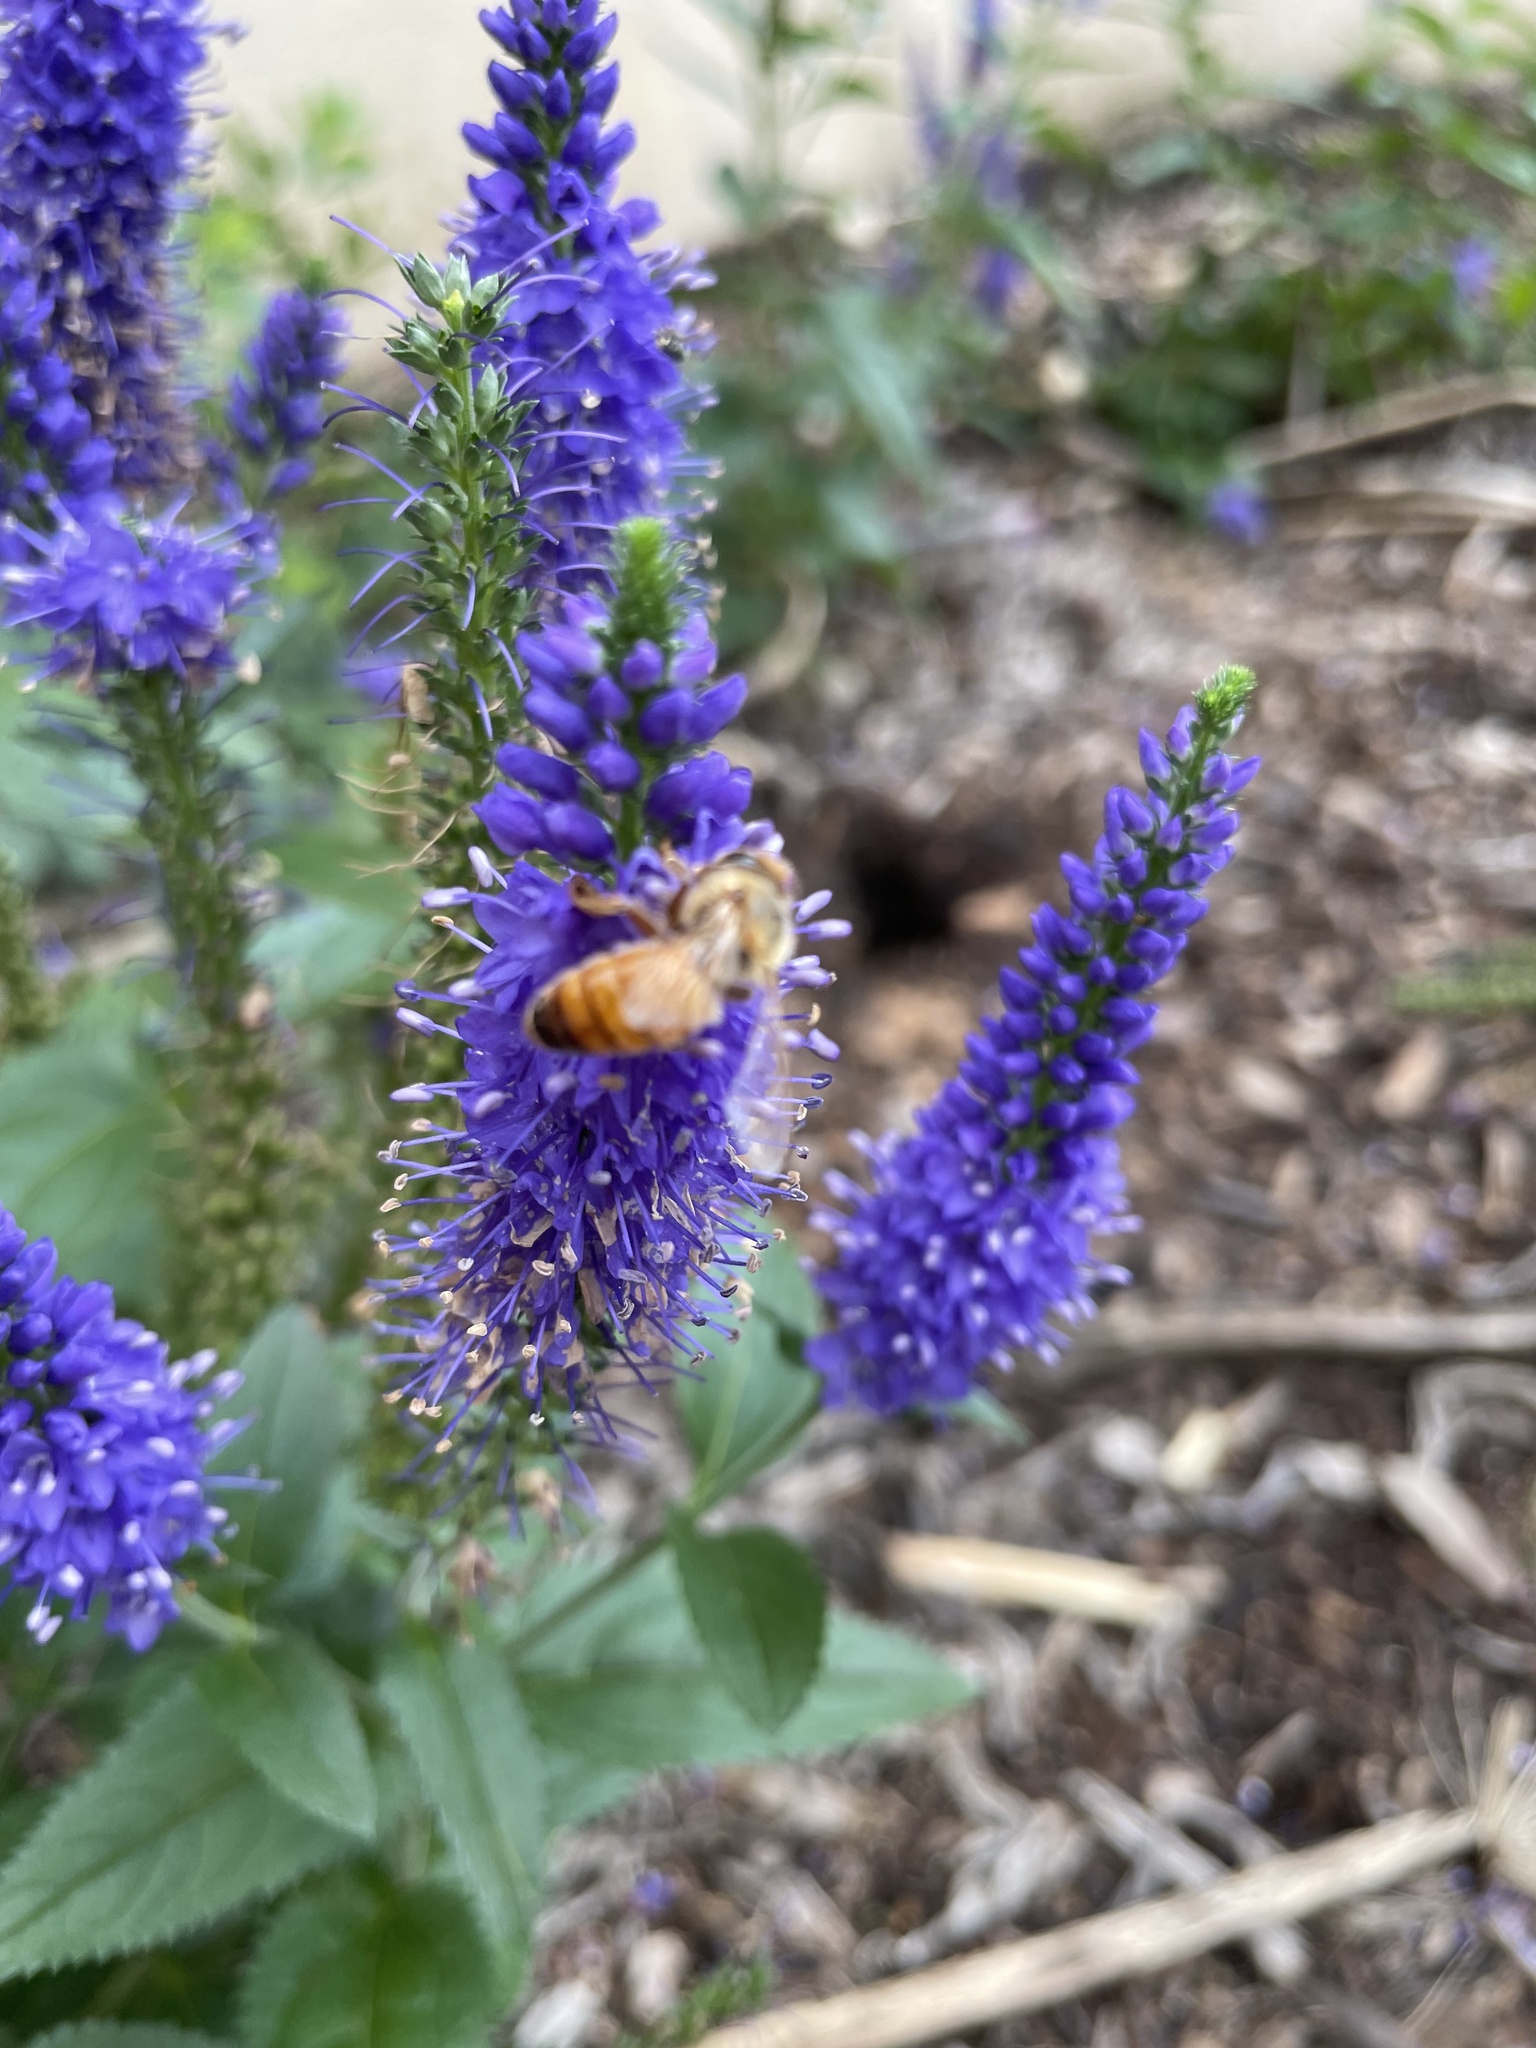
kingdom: Animalia
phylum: Arthropoda
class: Insecta
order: Hymenoptera
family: Apidae
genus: Apis
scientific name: Apis mellifera
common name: Honey bee
